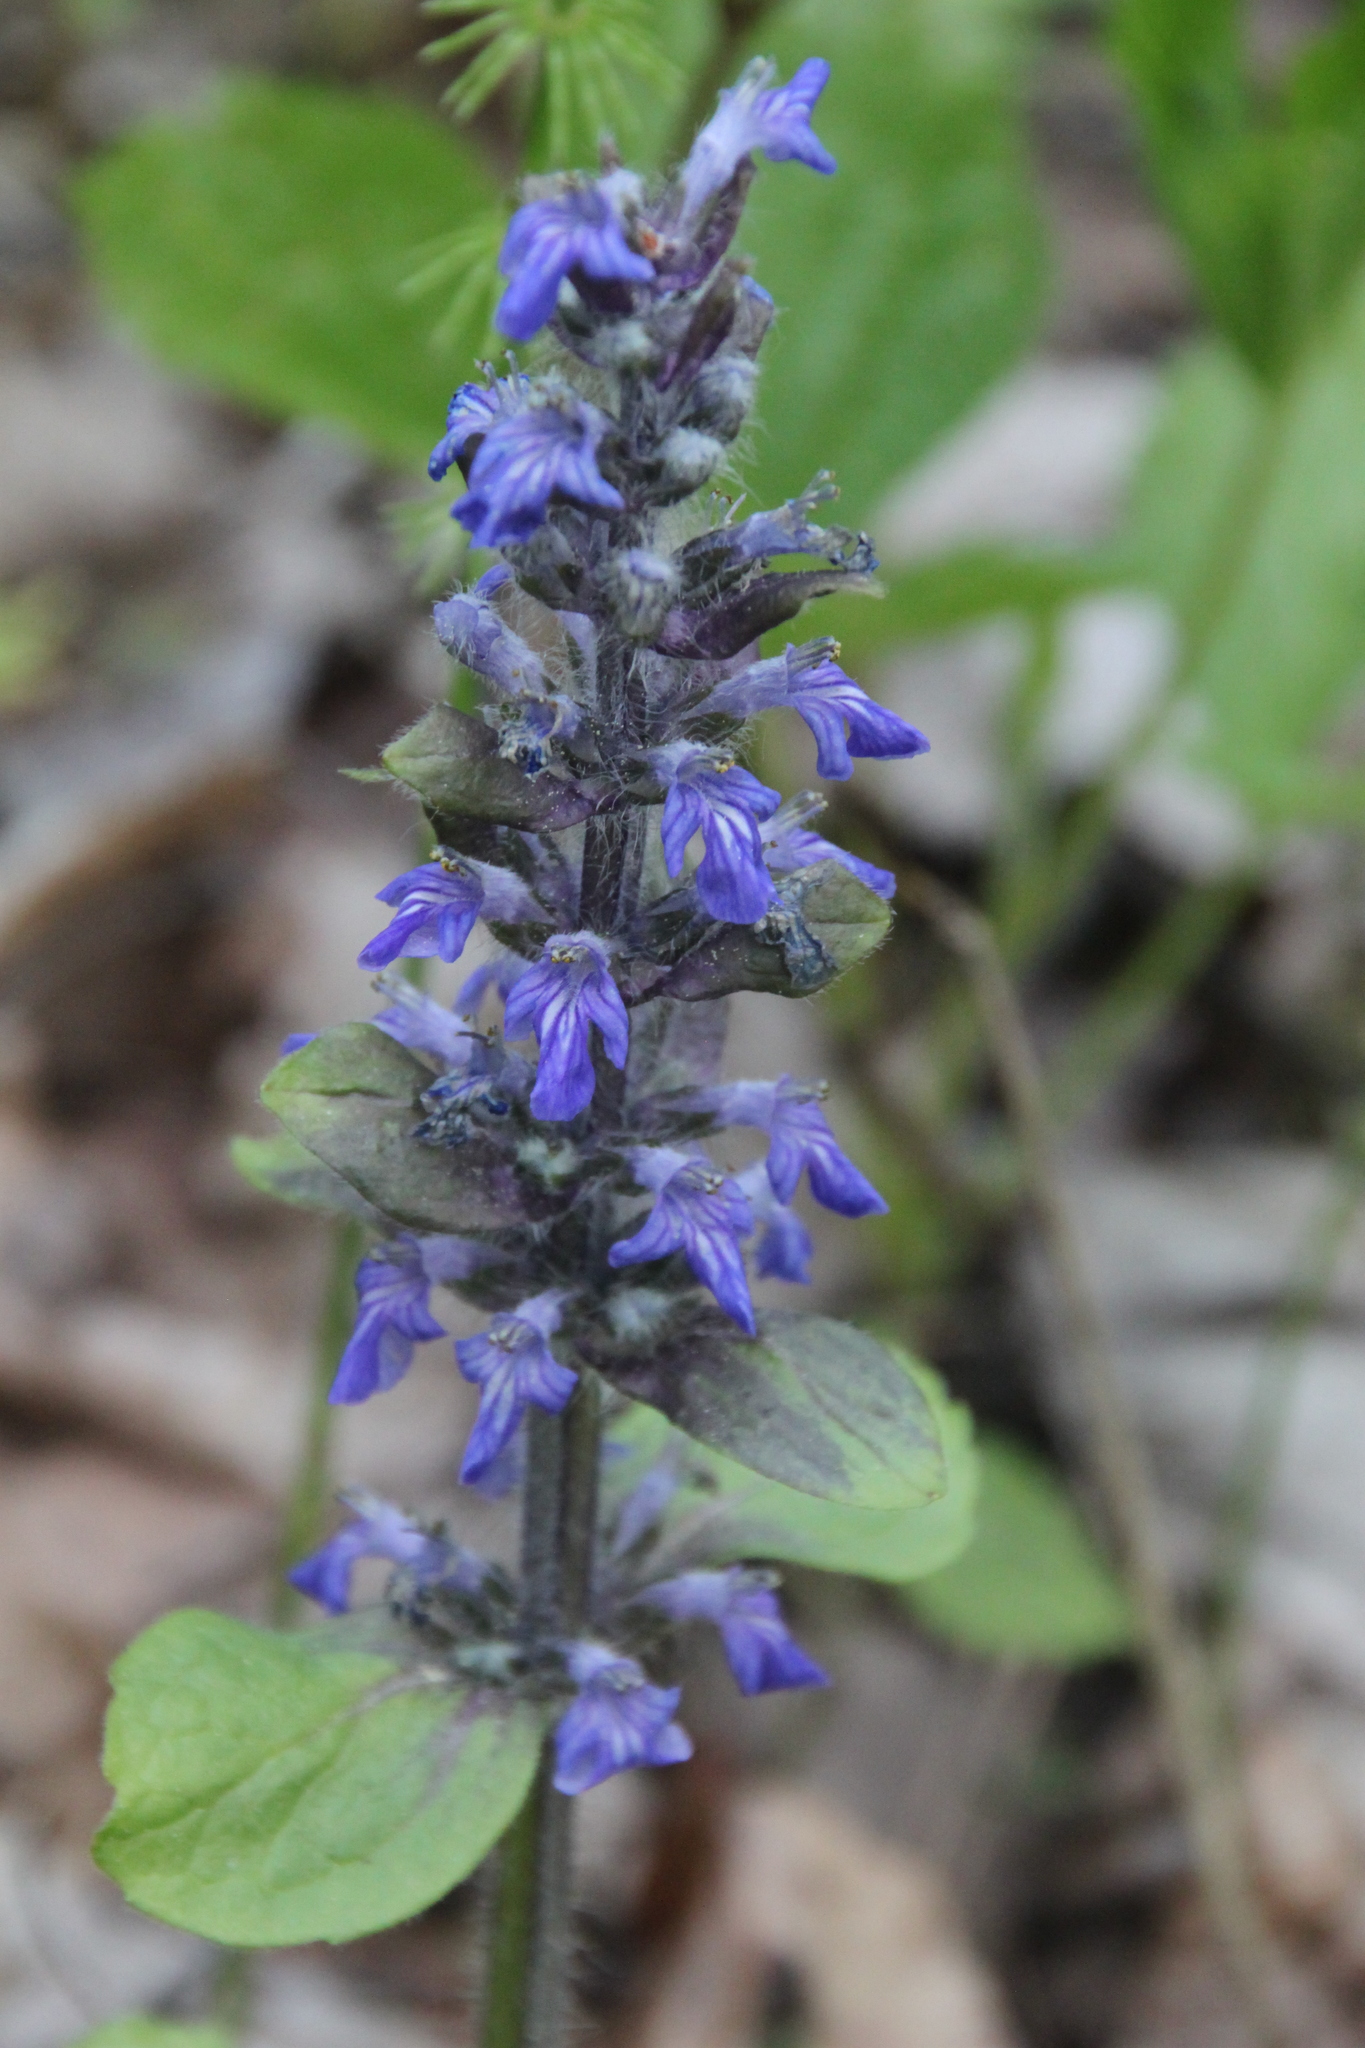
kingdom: Plantae
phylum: Tracheophyta
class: Magnoliopsida
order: Lamiales
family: Lamiaceae
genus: Ajuga
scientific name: Ajuga reptans
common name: Bugle
